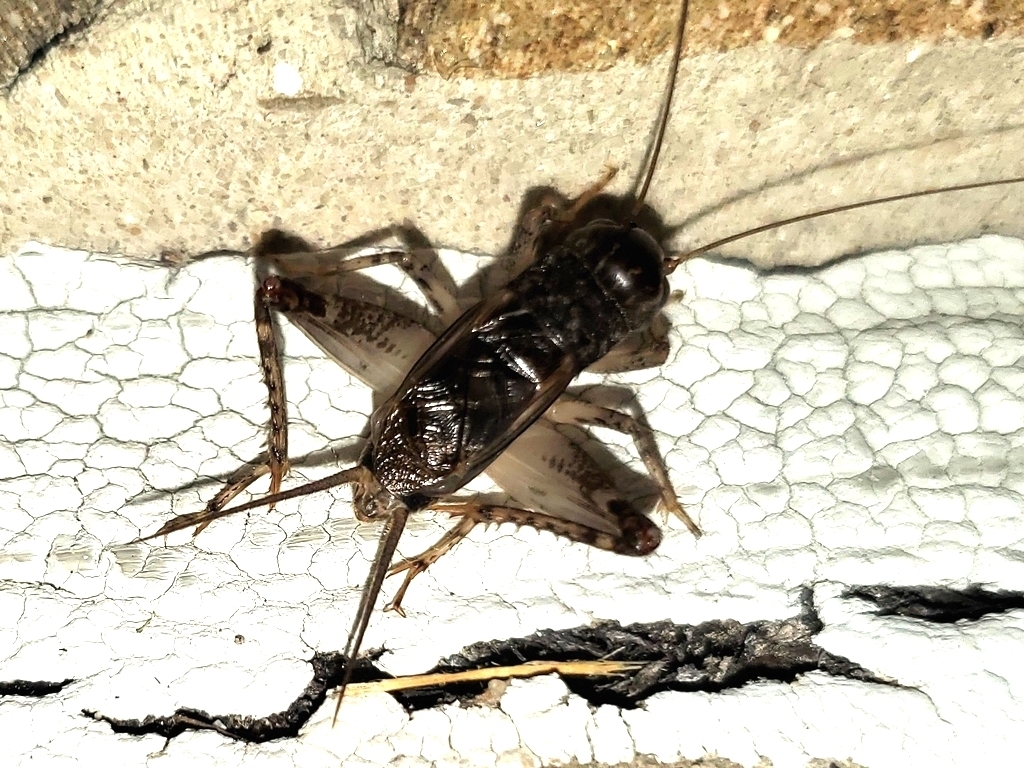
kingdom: Animalia
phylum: Arthropoda
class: Insecta
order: Orthoptera
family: Gryllidae
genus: Velarifictorus
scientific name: Velarifictorus micado
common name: Japanese burrowing cricket
